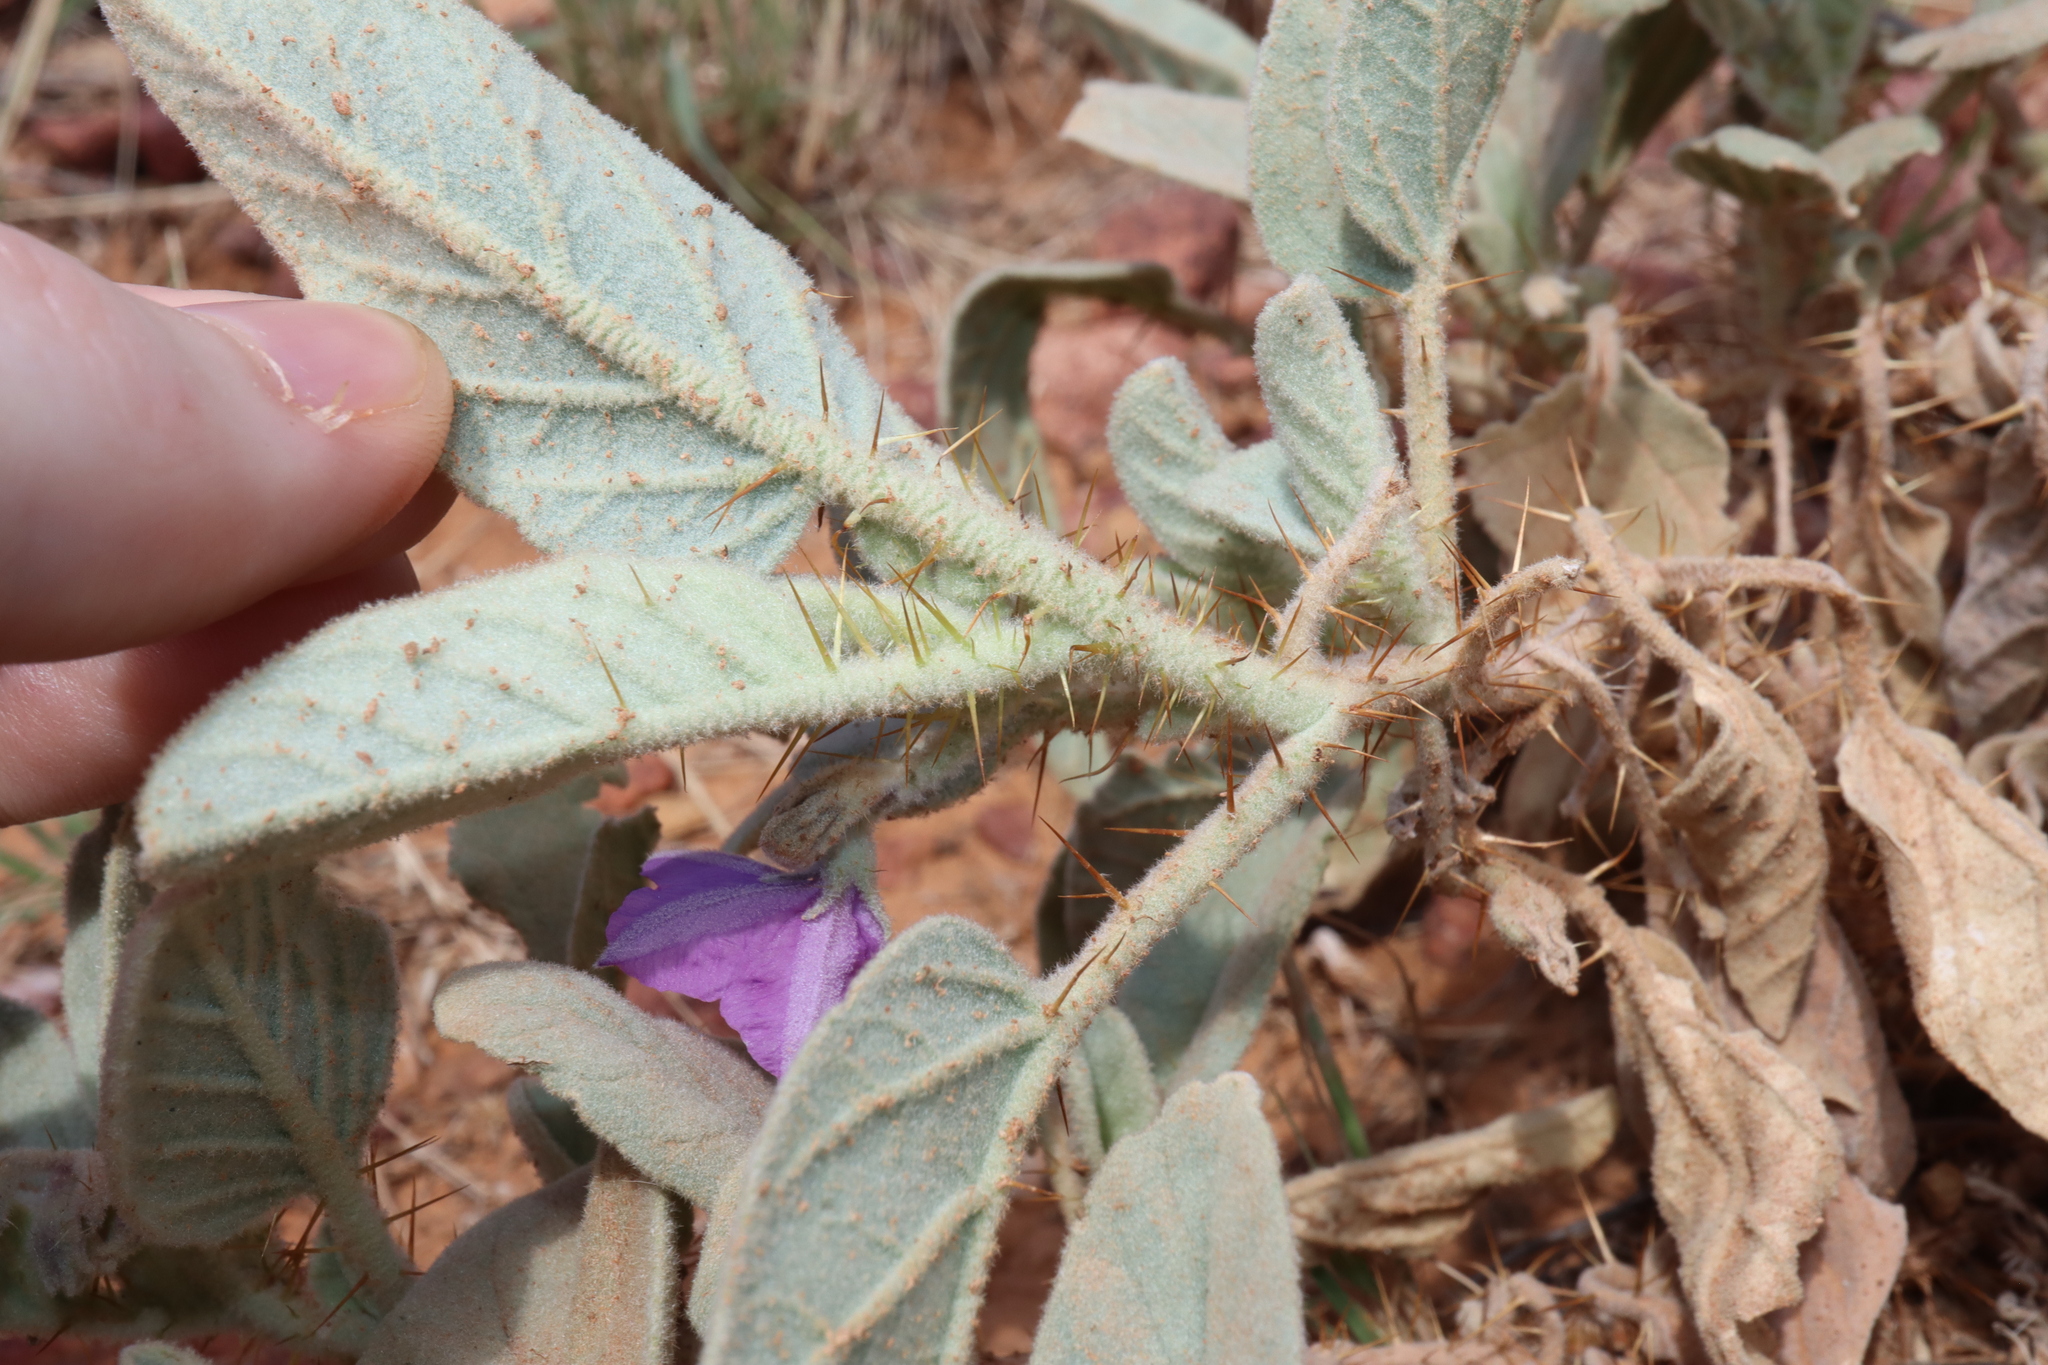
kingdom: Plantae
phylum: Tracheophyta
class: Magnoliopsida
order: Solanales
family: Solanaceae
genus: Solanum
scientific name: Solanum ellipticum
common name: Potato-bush
